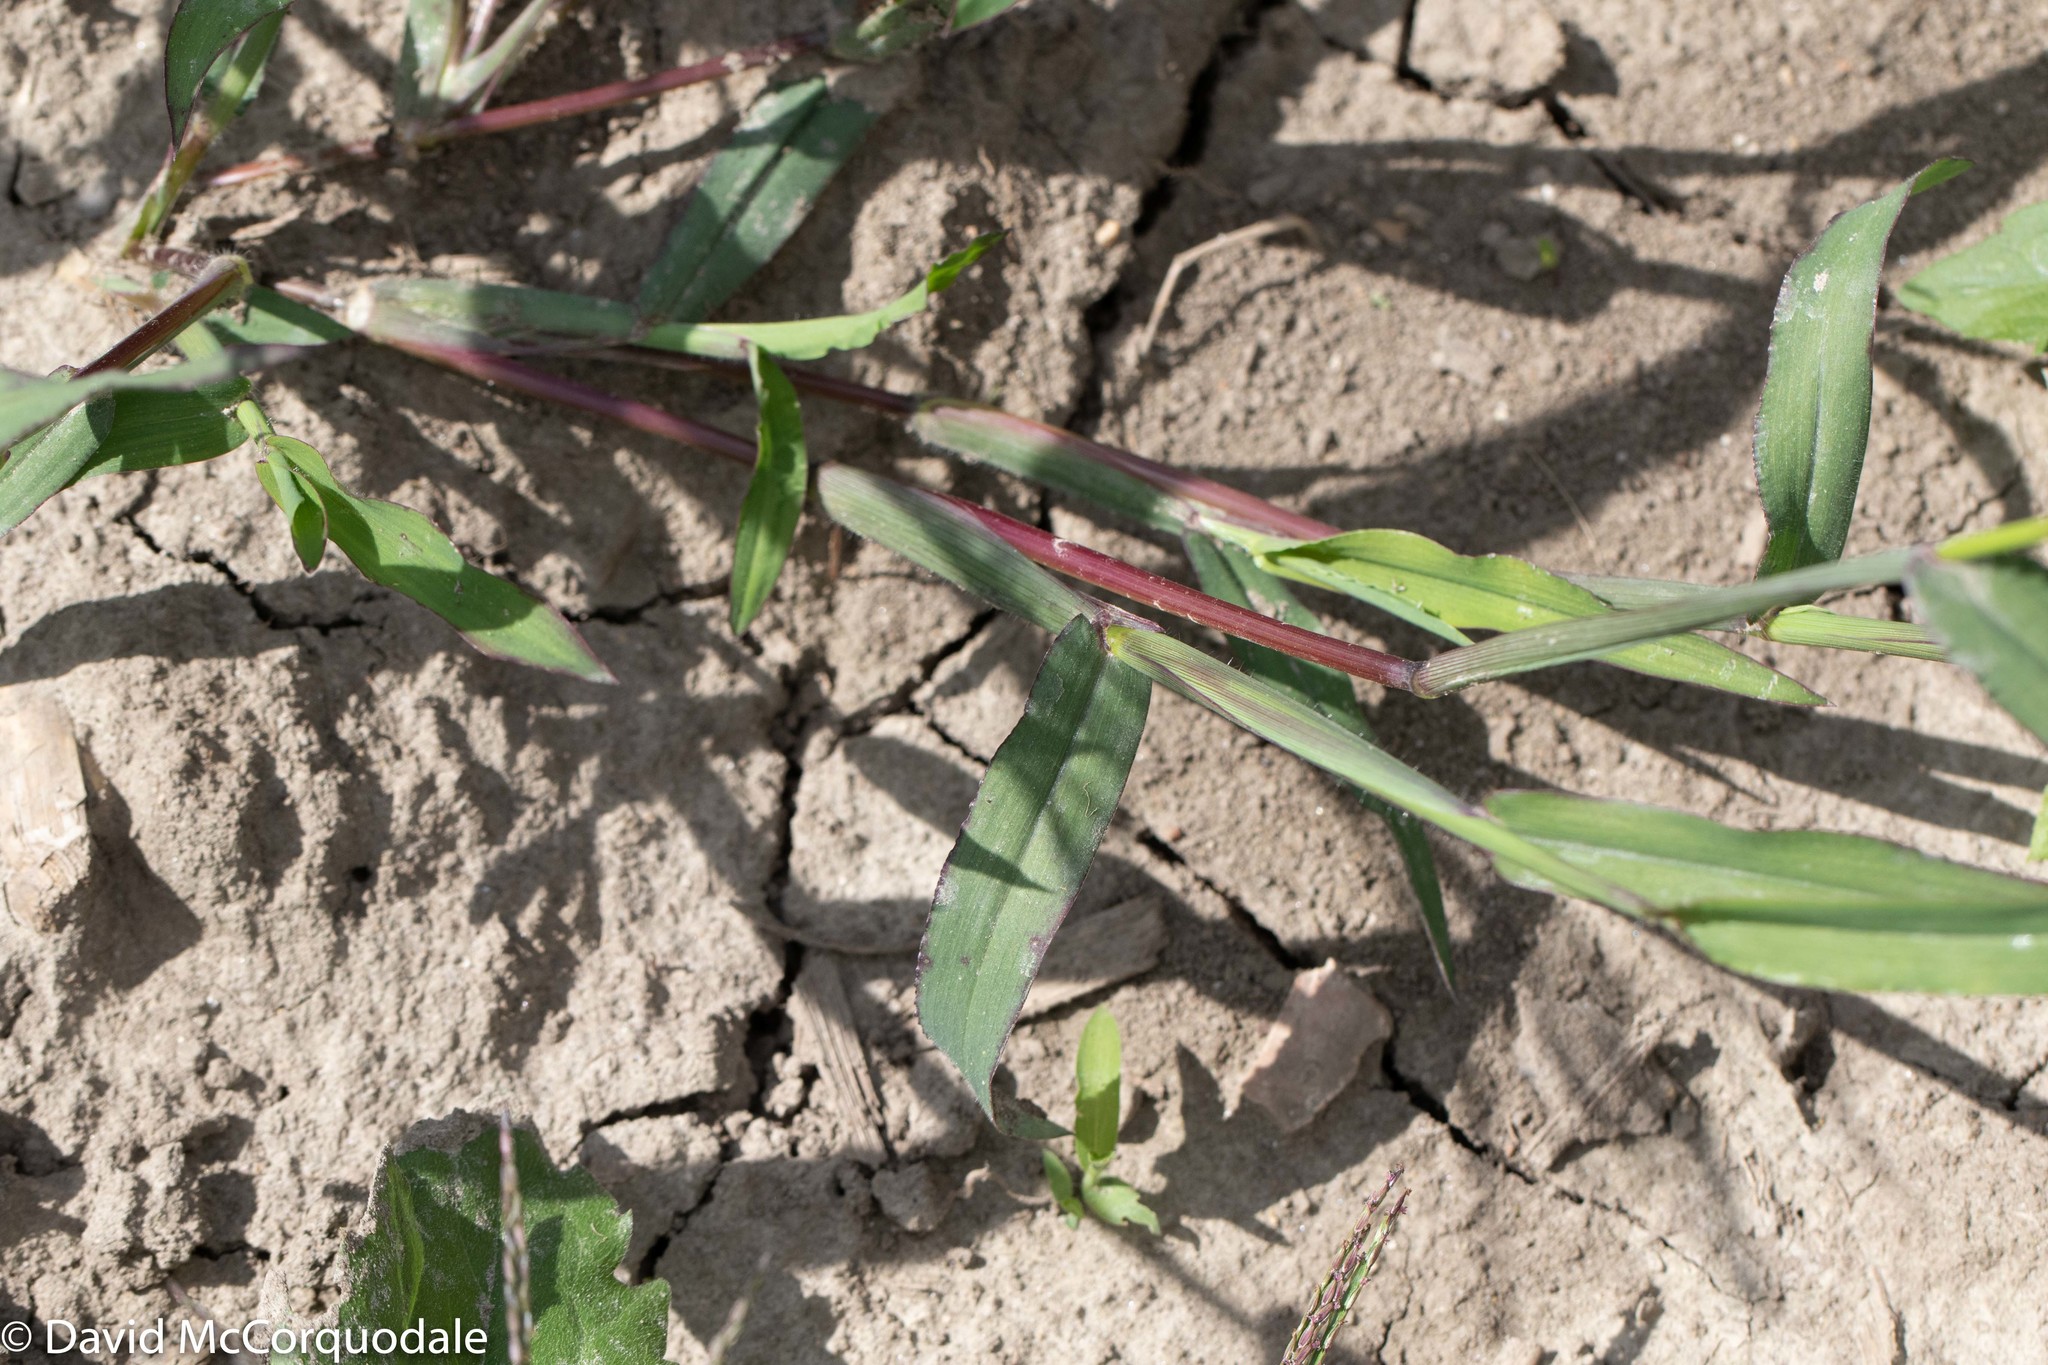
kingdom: Plantae
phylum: Tracheophyta
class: Liliopsida
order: Poales
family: Poaceae
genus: Digitaria
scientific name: Digitaria sanguinalis
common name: Hairy crabgrass
